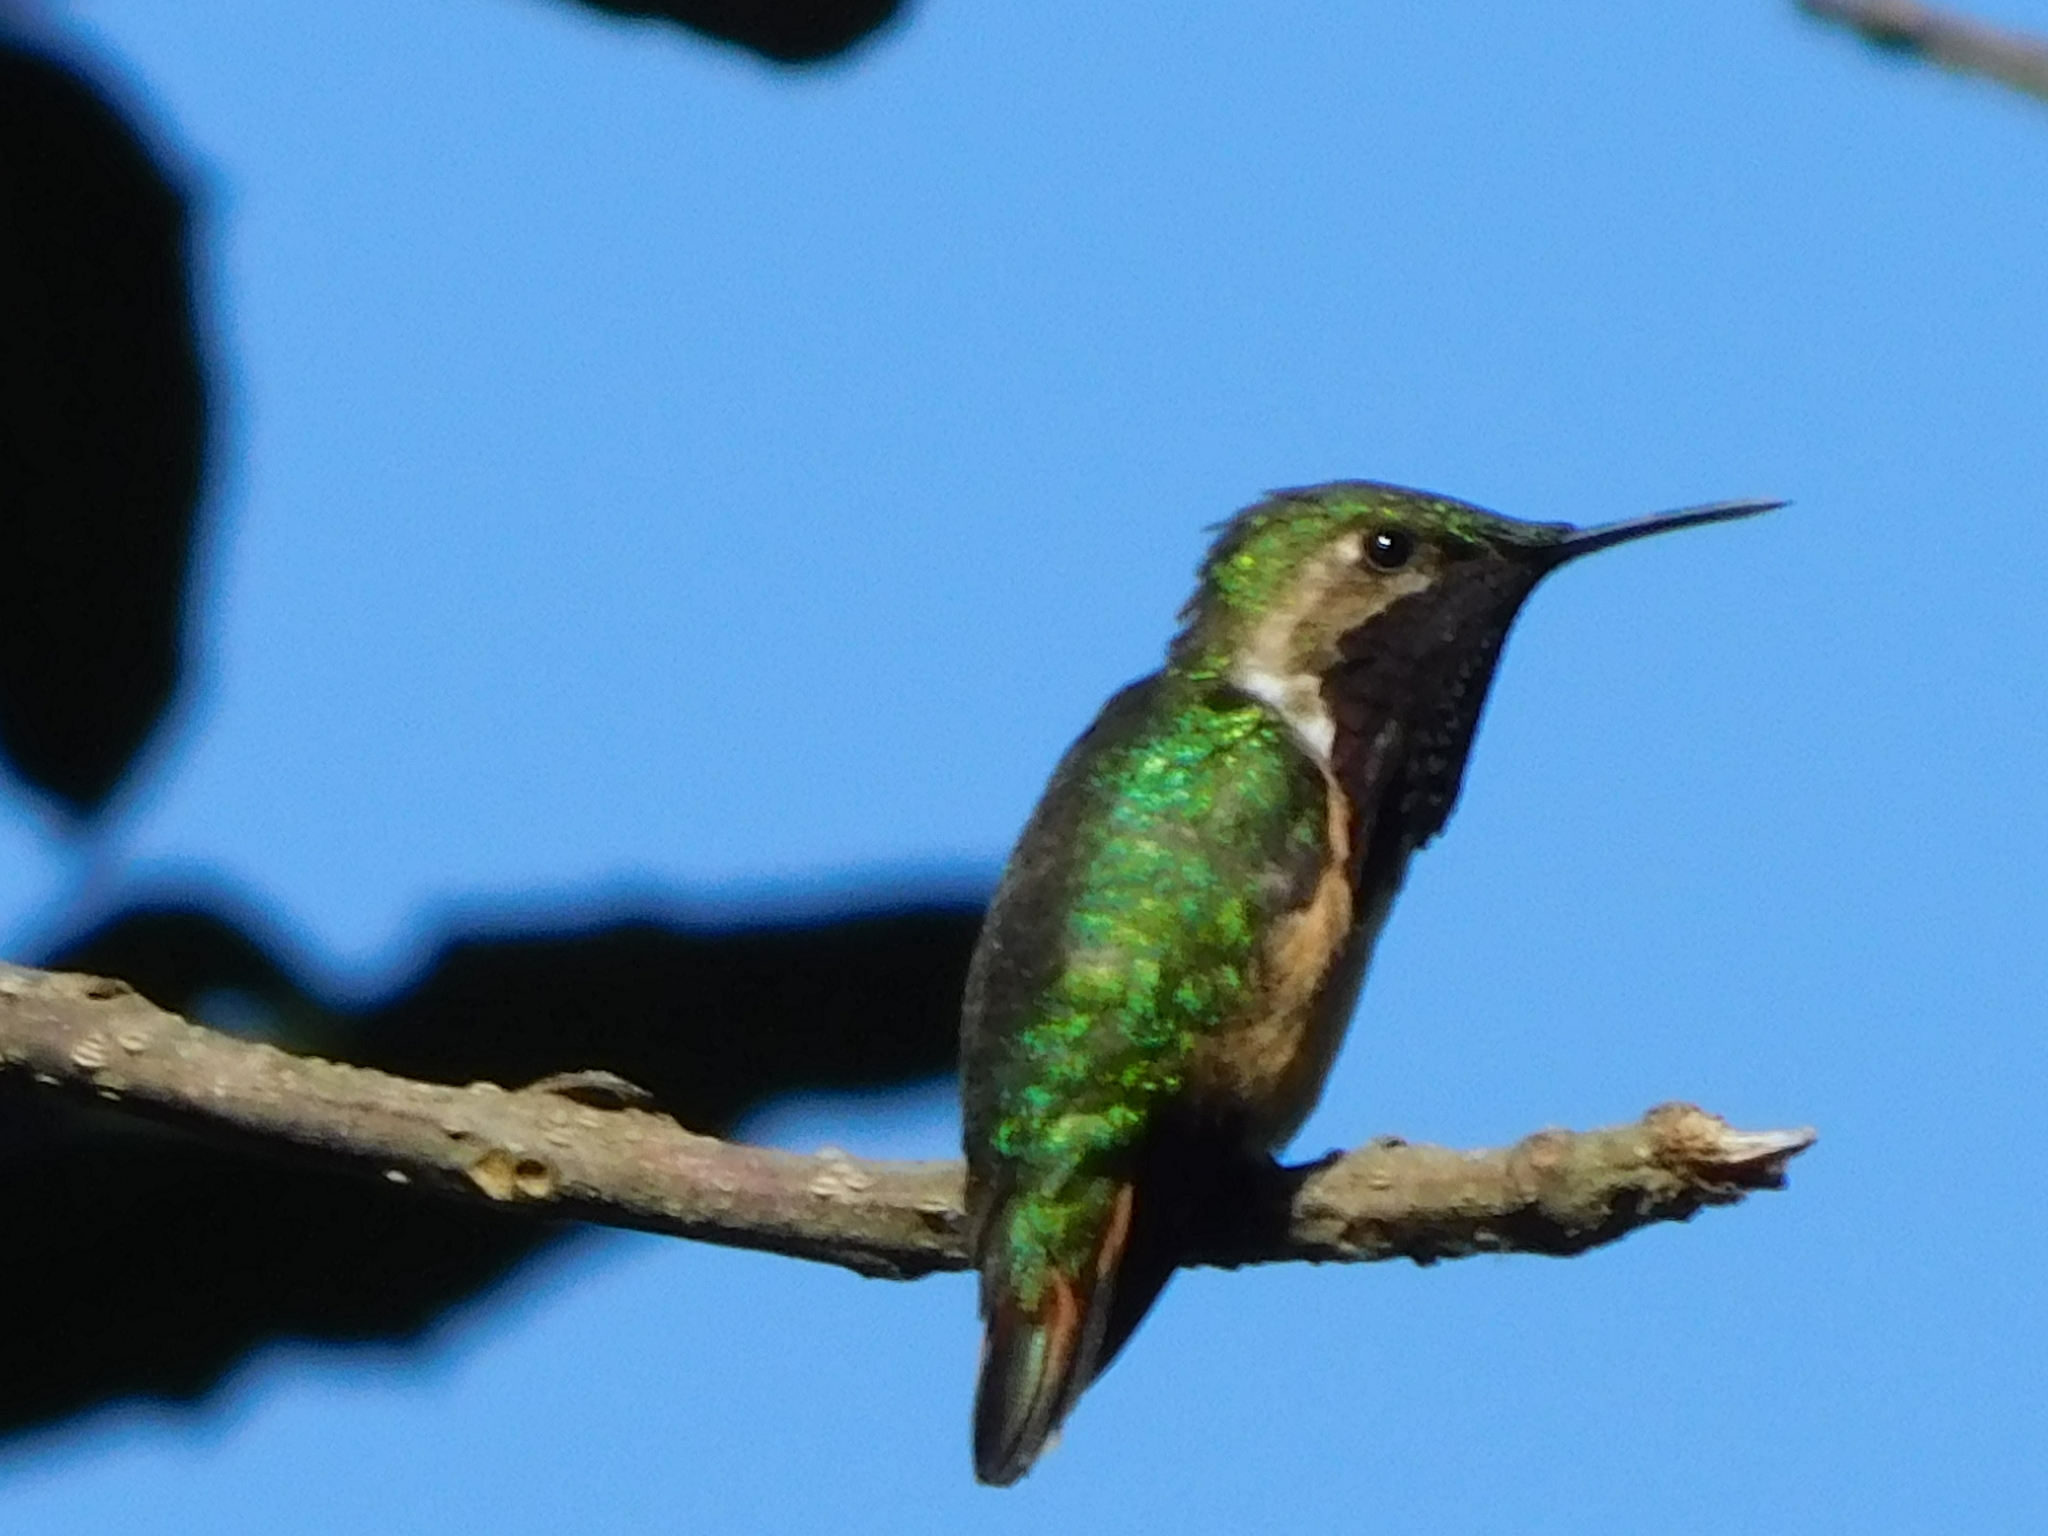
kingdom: Animalia
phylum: Chordata
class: Aves
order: Apodiformes
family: Trochilidae
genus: Selasphorus
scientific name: Selasphorus ellioti
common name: Wine-throated hummingbird
